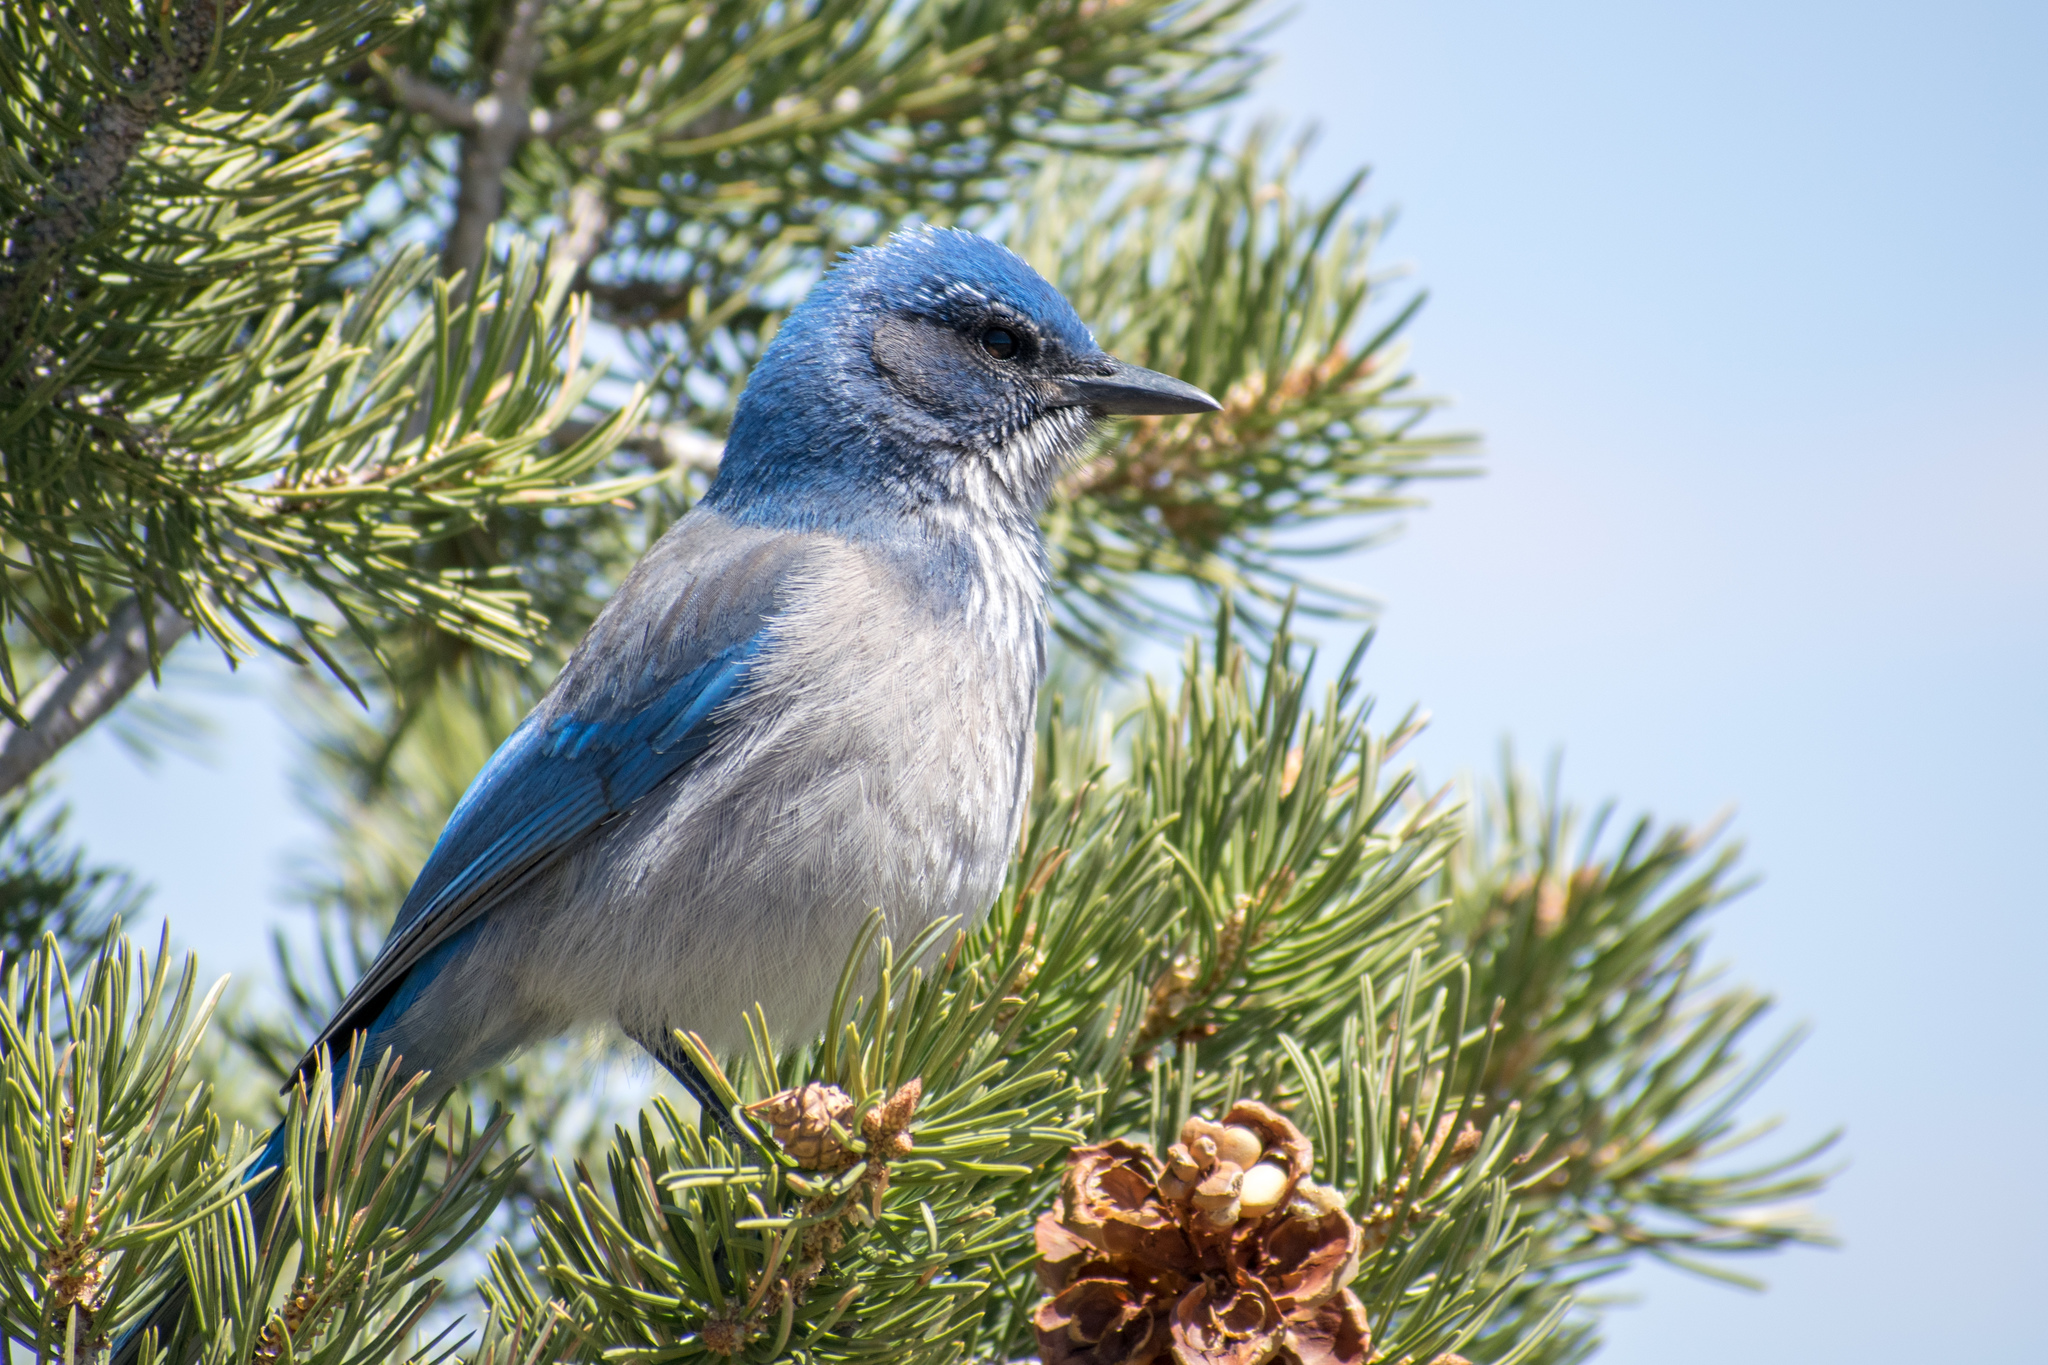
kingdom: Animalia
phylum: Chordata
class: Aves
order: Passeriformes
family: Corvidae
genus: Aphelocoma
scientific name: Aphelocoma woodhouseii
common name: Woodhouse's scrub-jay
